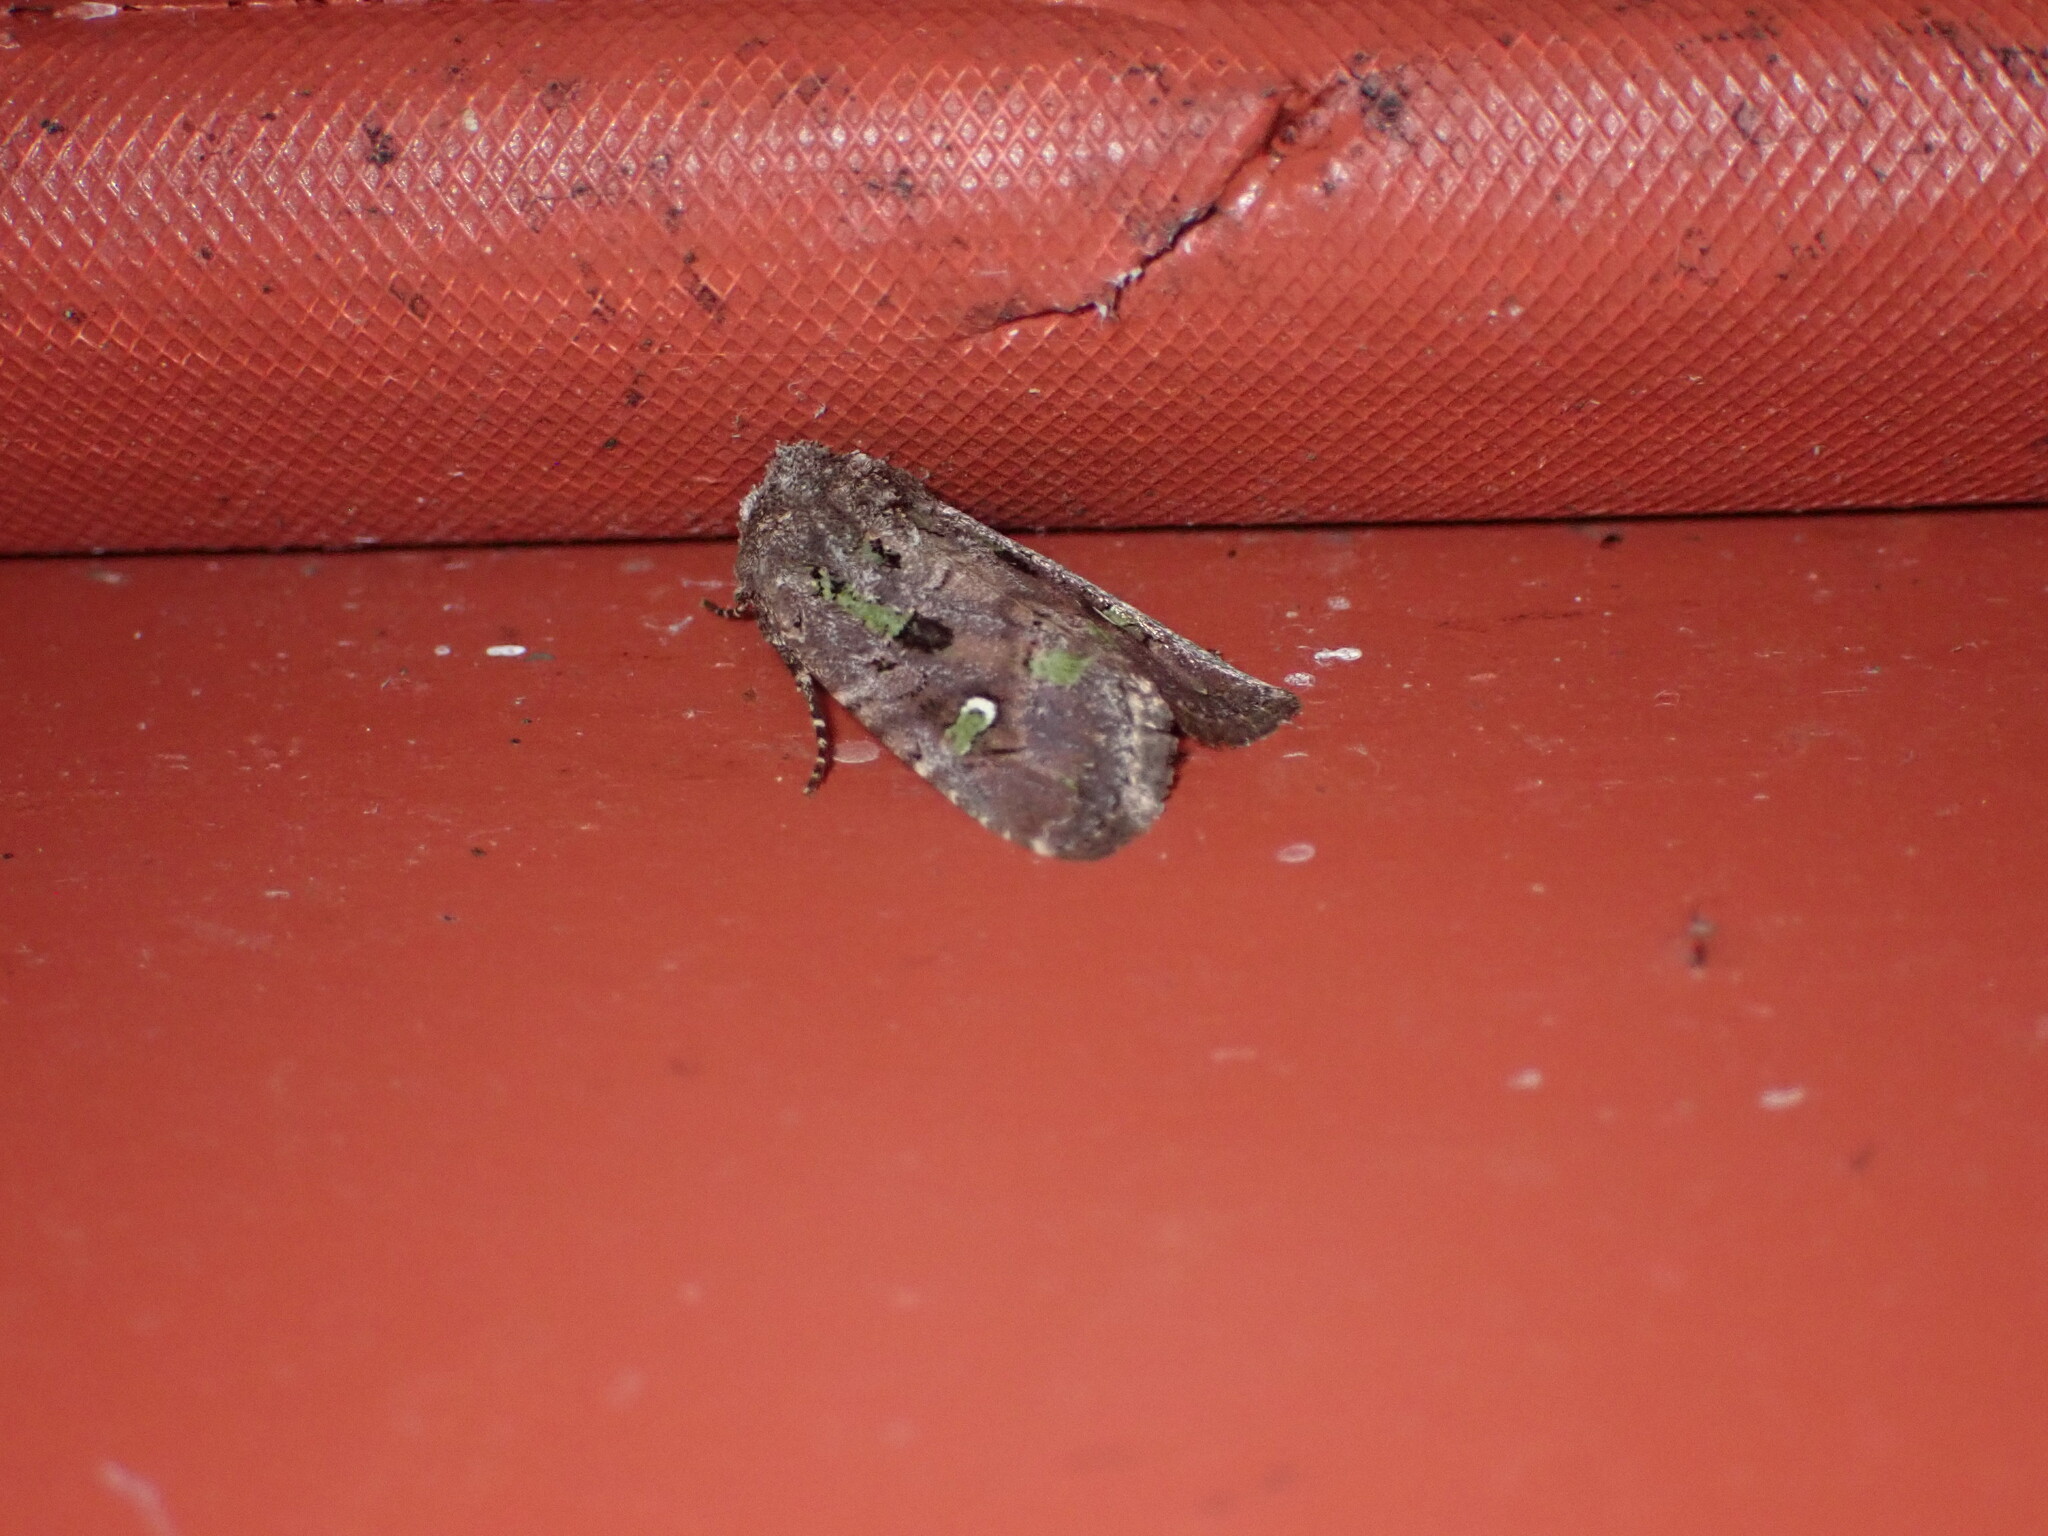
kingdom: Animalia
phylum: Arthropoda
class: Insecta
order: Lepidoptera
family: Noctuidae
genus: Lacinipolia
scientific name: Lacinipolia renigera
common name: Kidney-spotted minor
